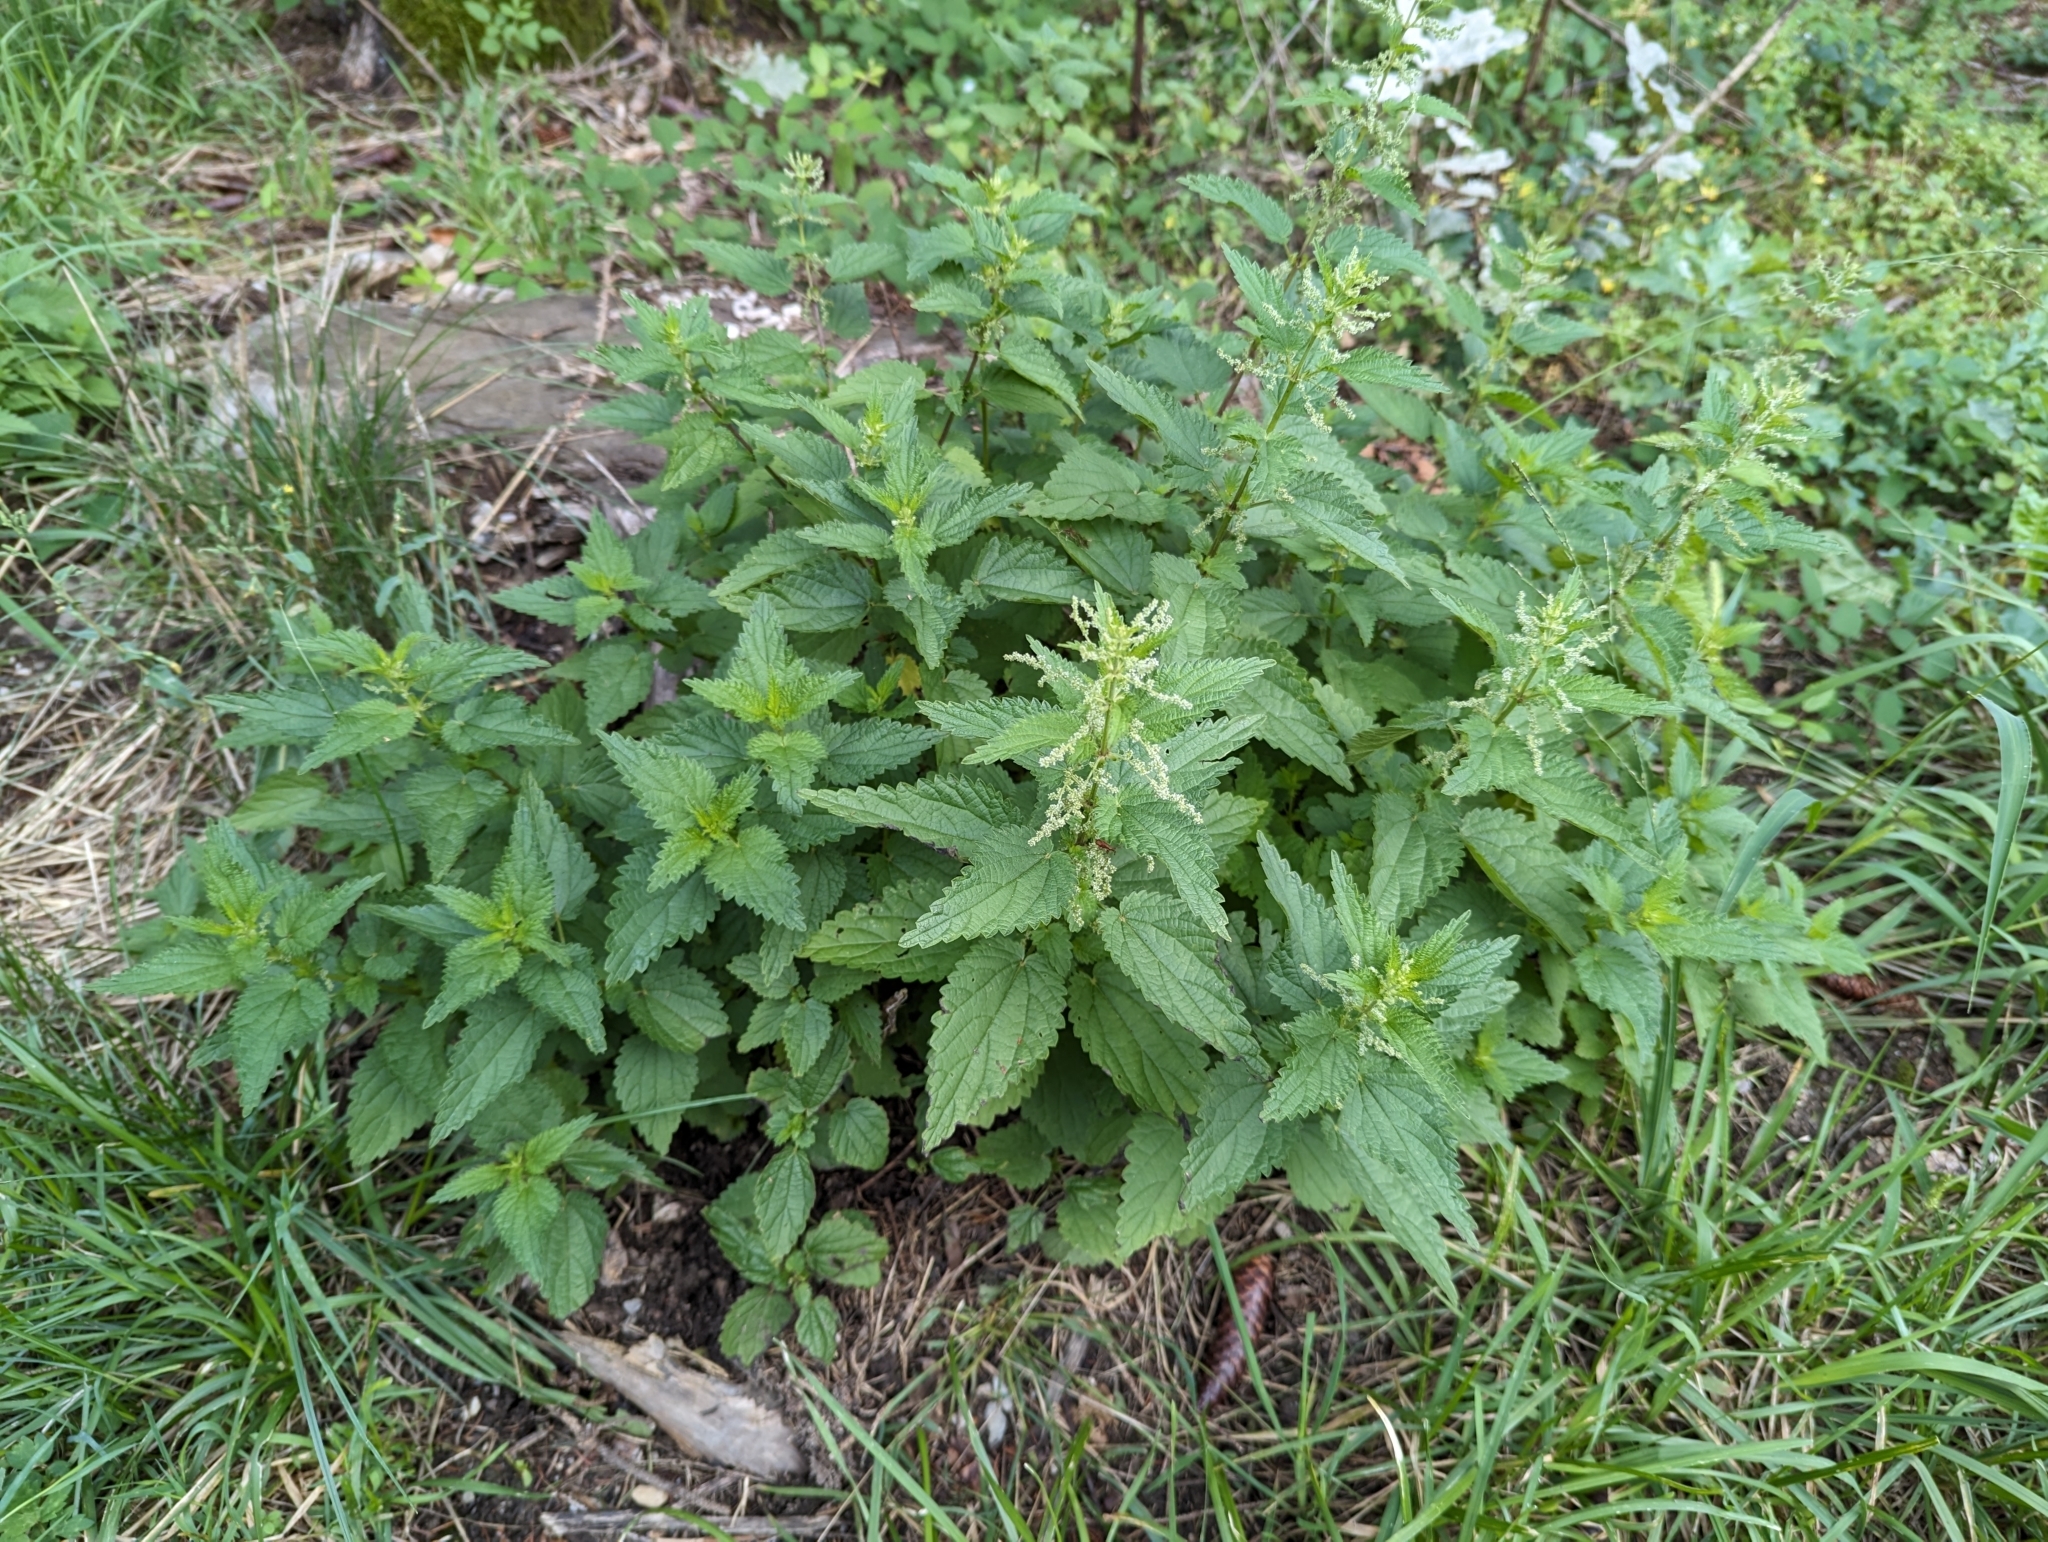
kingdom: Plantae
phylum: Tracheophyta
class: Magnoliopsida
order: Rosales
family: Urticaceae
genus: Urtica
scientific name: Urtica dioica
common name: Common nettle
